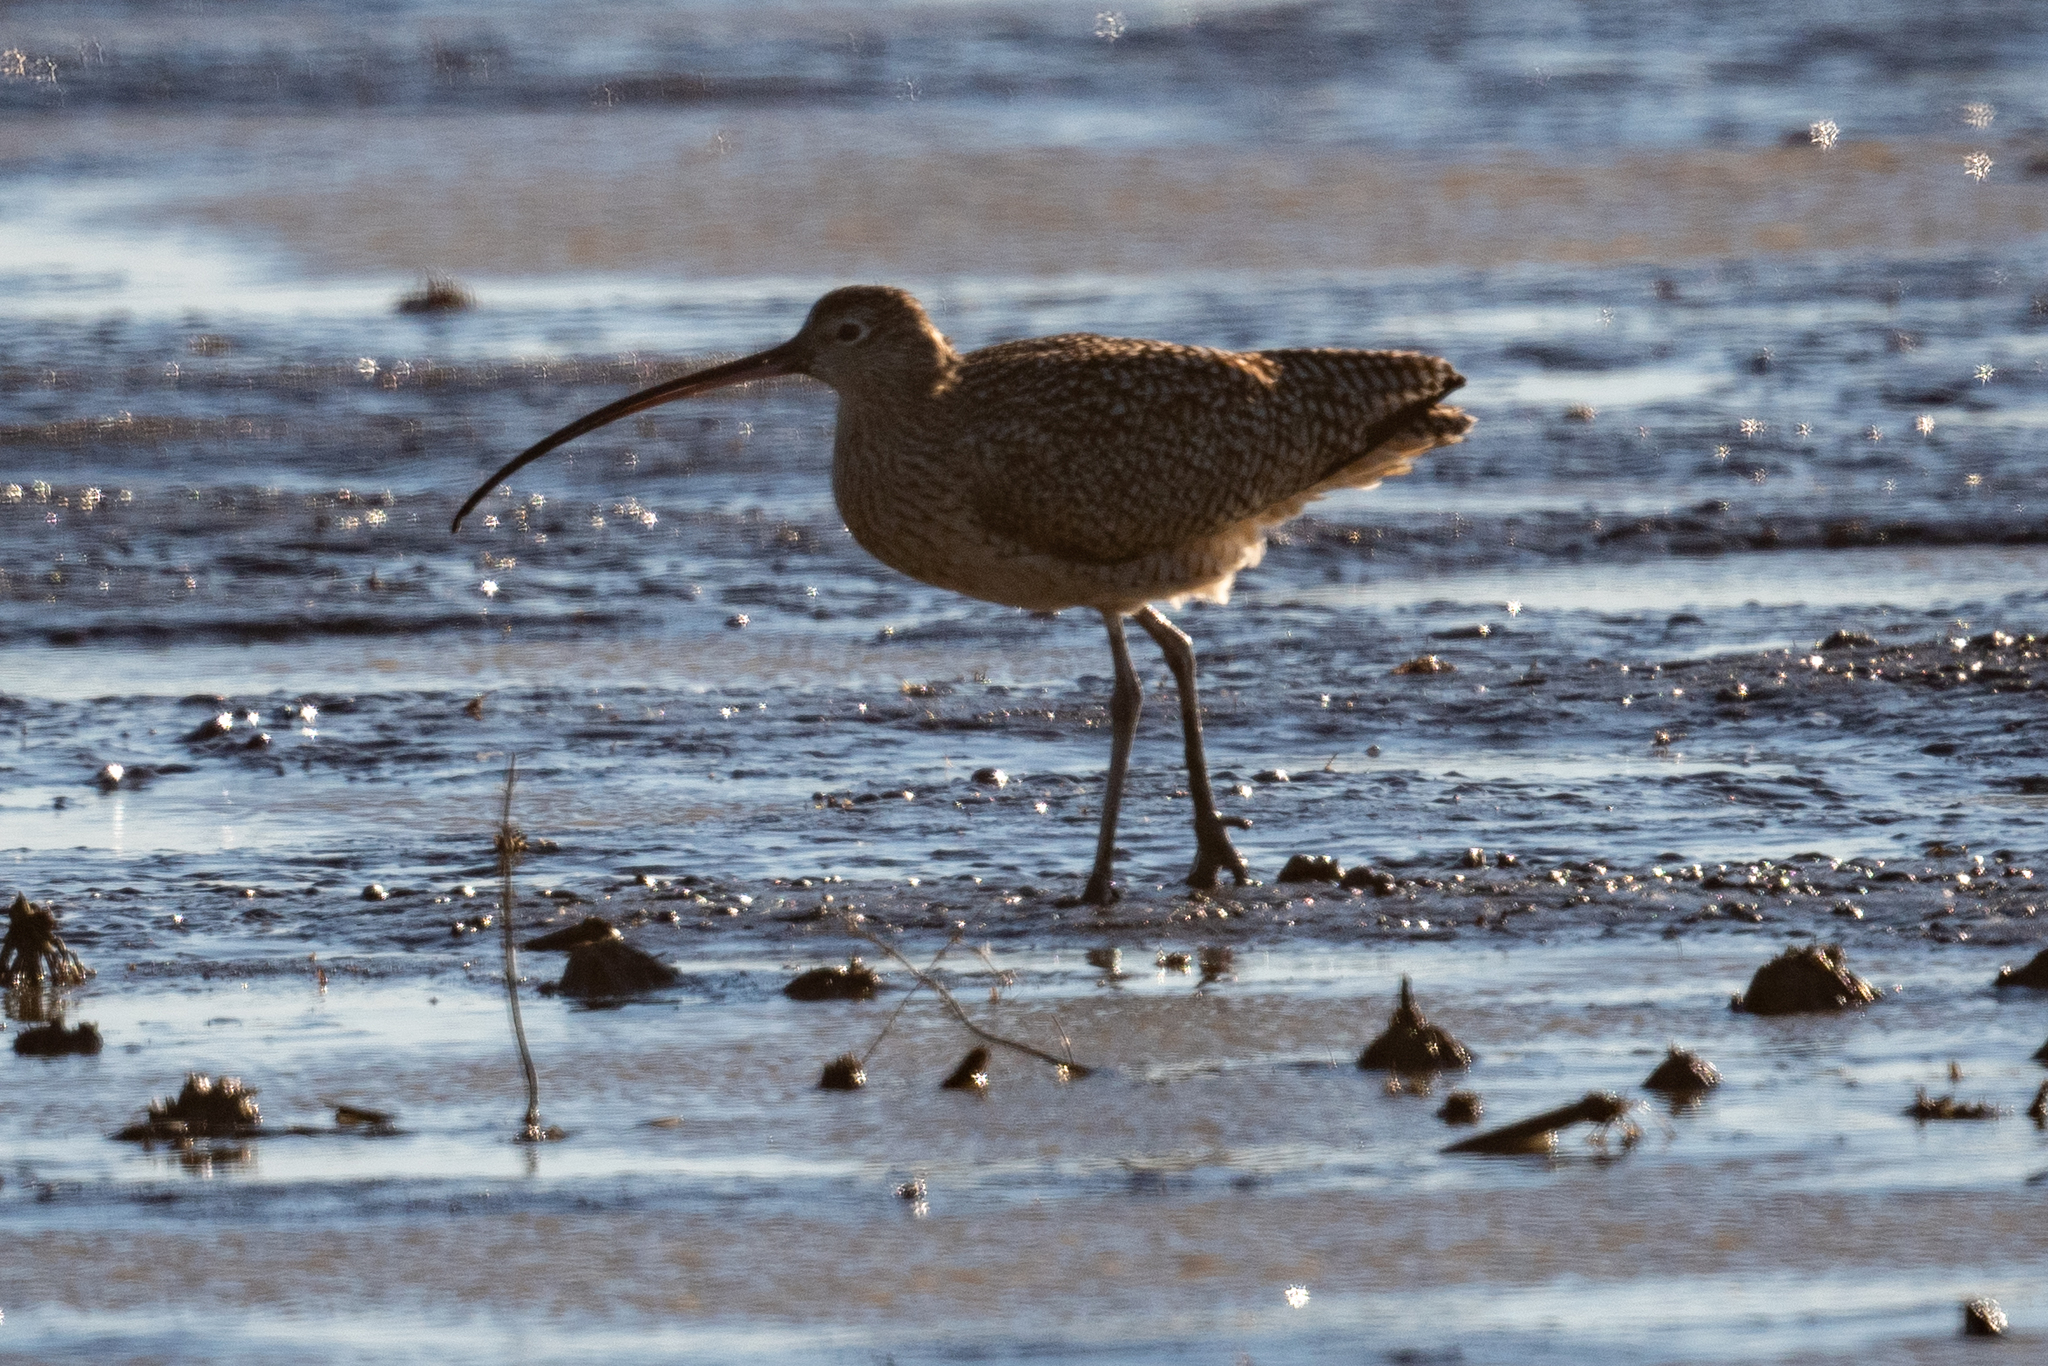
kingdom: Animalia
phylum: Chordata
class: Aves
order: Charadriiformes
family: Scolopacidae
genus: Numenius
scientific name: Numenius americanus
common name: Long-billed curlew
